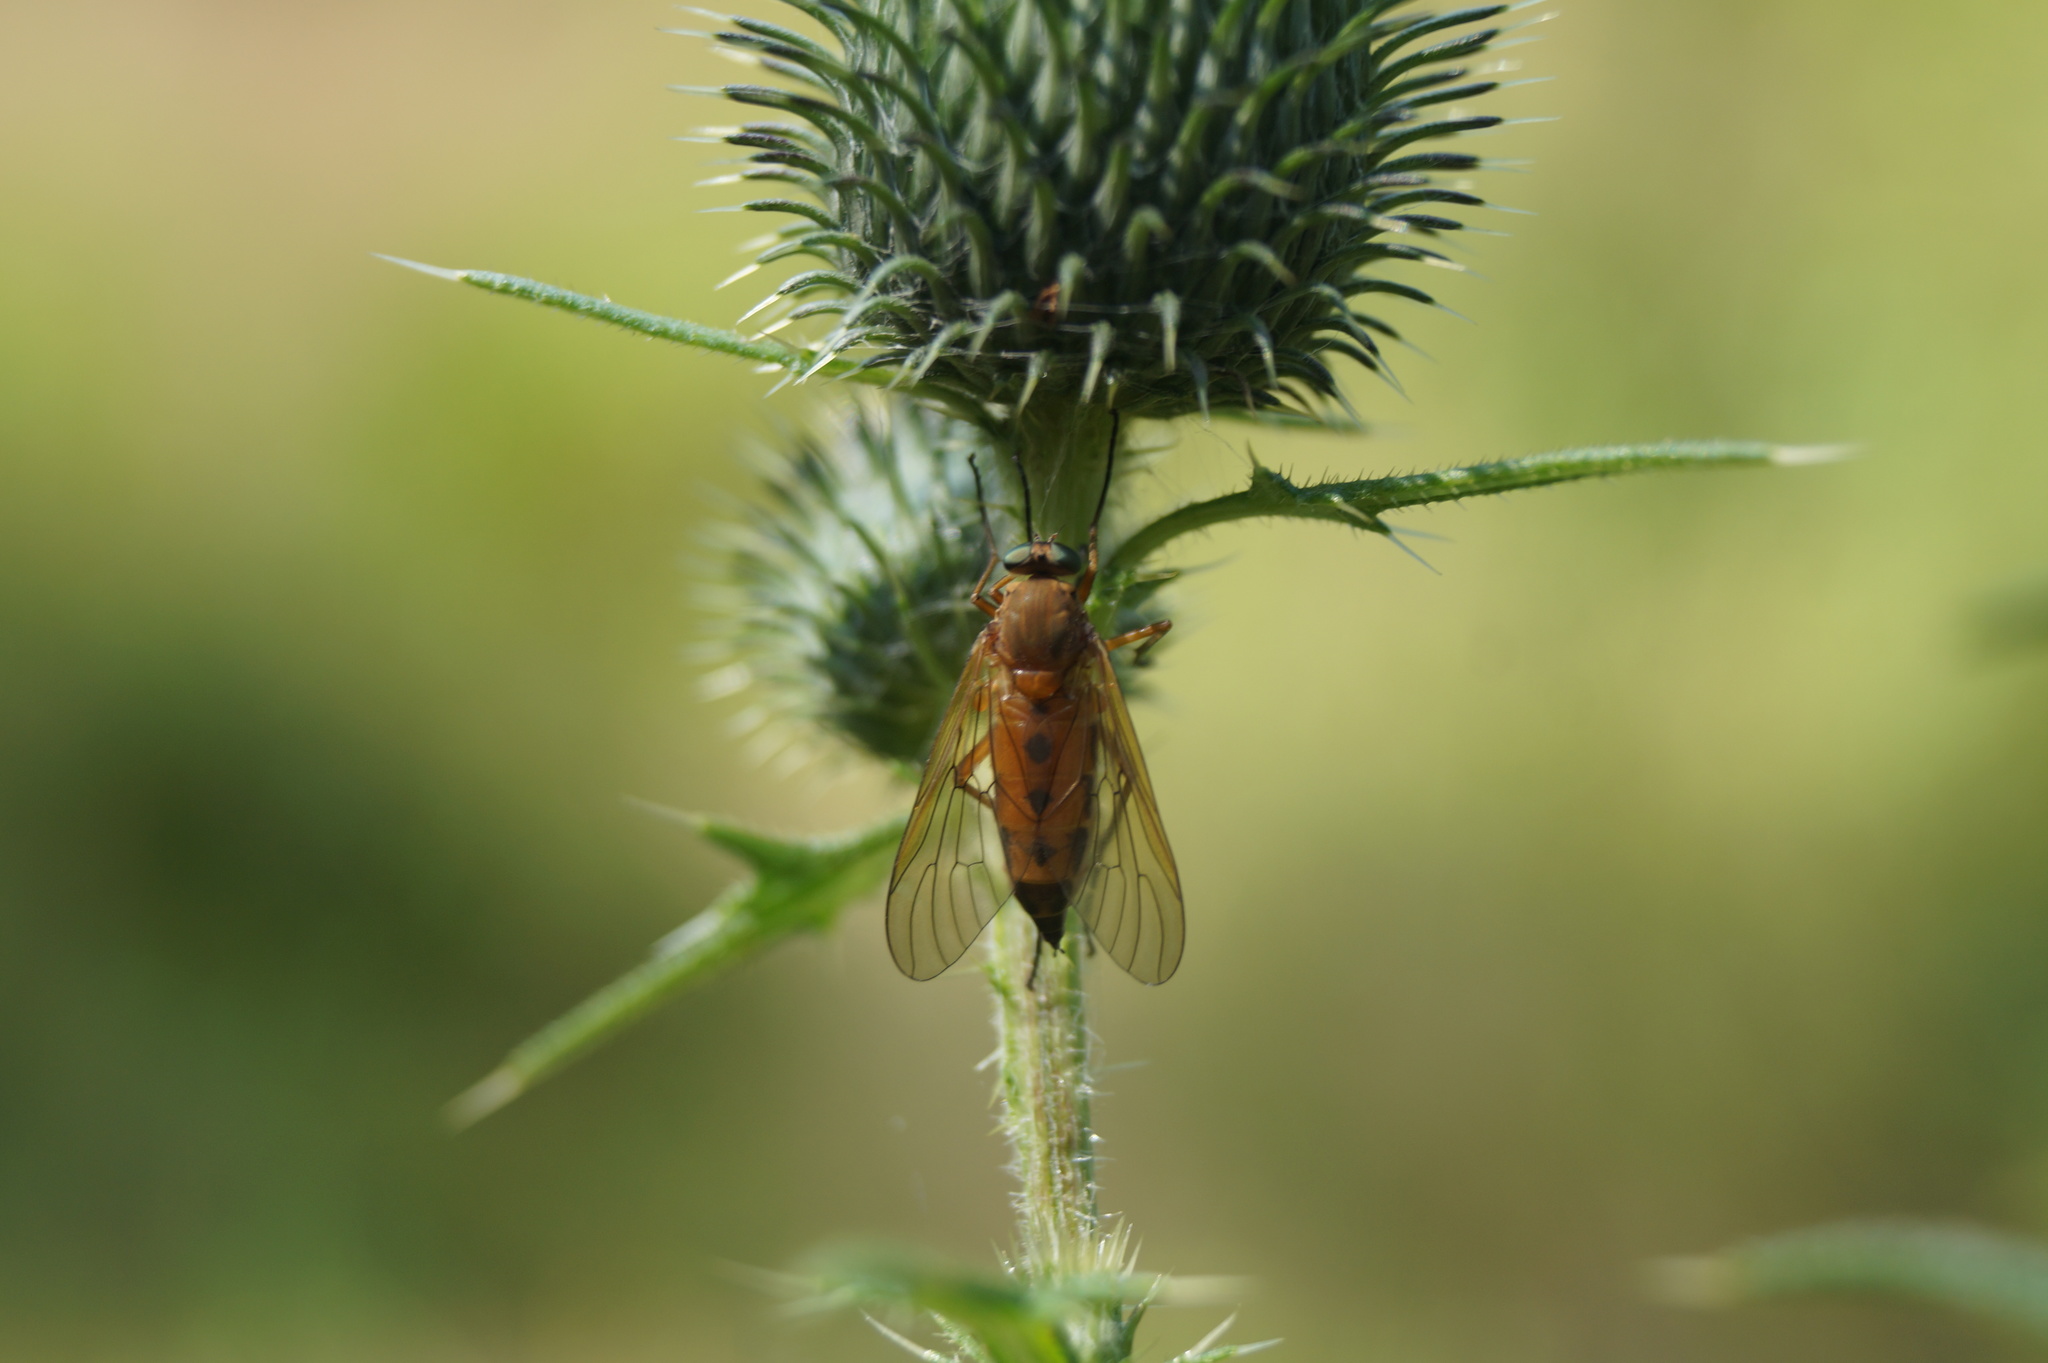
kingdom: Animalia
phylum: Arthropoda
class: Insecta
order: Diptera
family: Rhagionidae
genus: Rhagio
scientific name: Rhagio tringaria
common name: Marsh snipefly
